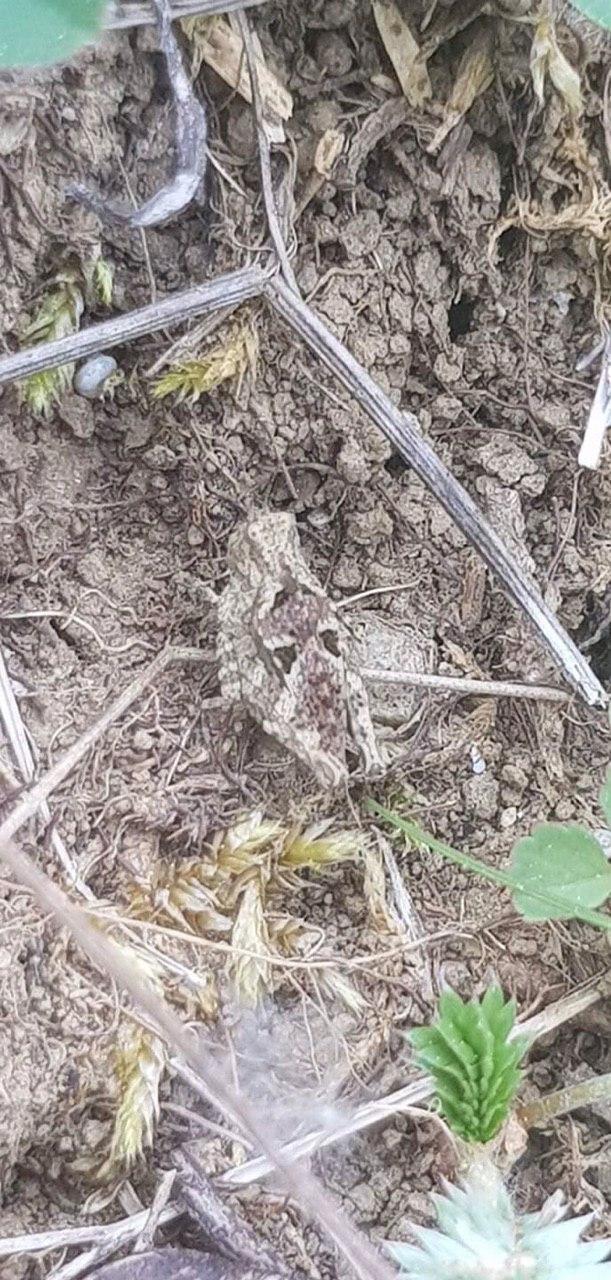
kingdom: Animalia
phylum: Arthropoda
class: Insecta
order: Orthoptera
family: Tetrigidae
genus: Tetrix
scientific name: Tetrix tenuicornis
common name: Long-horned groundhopper
